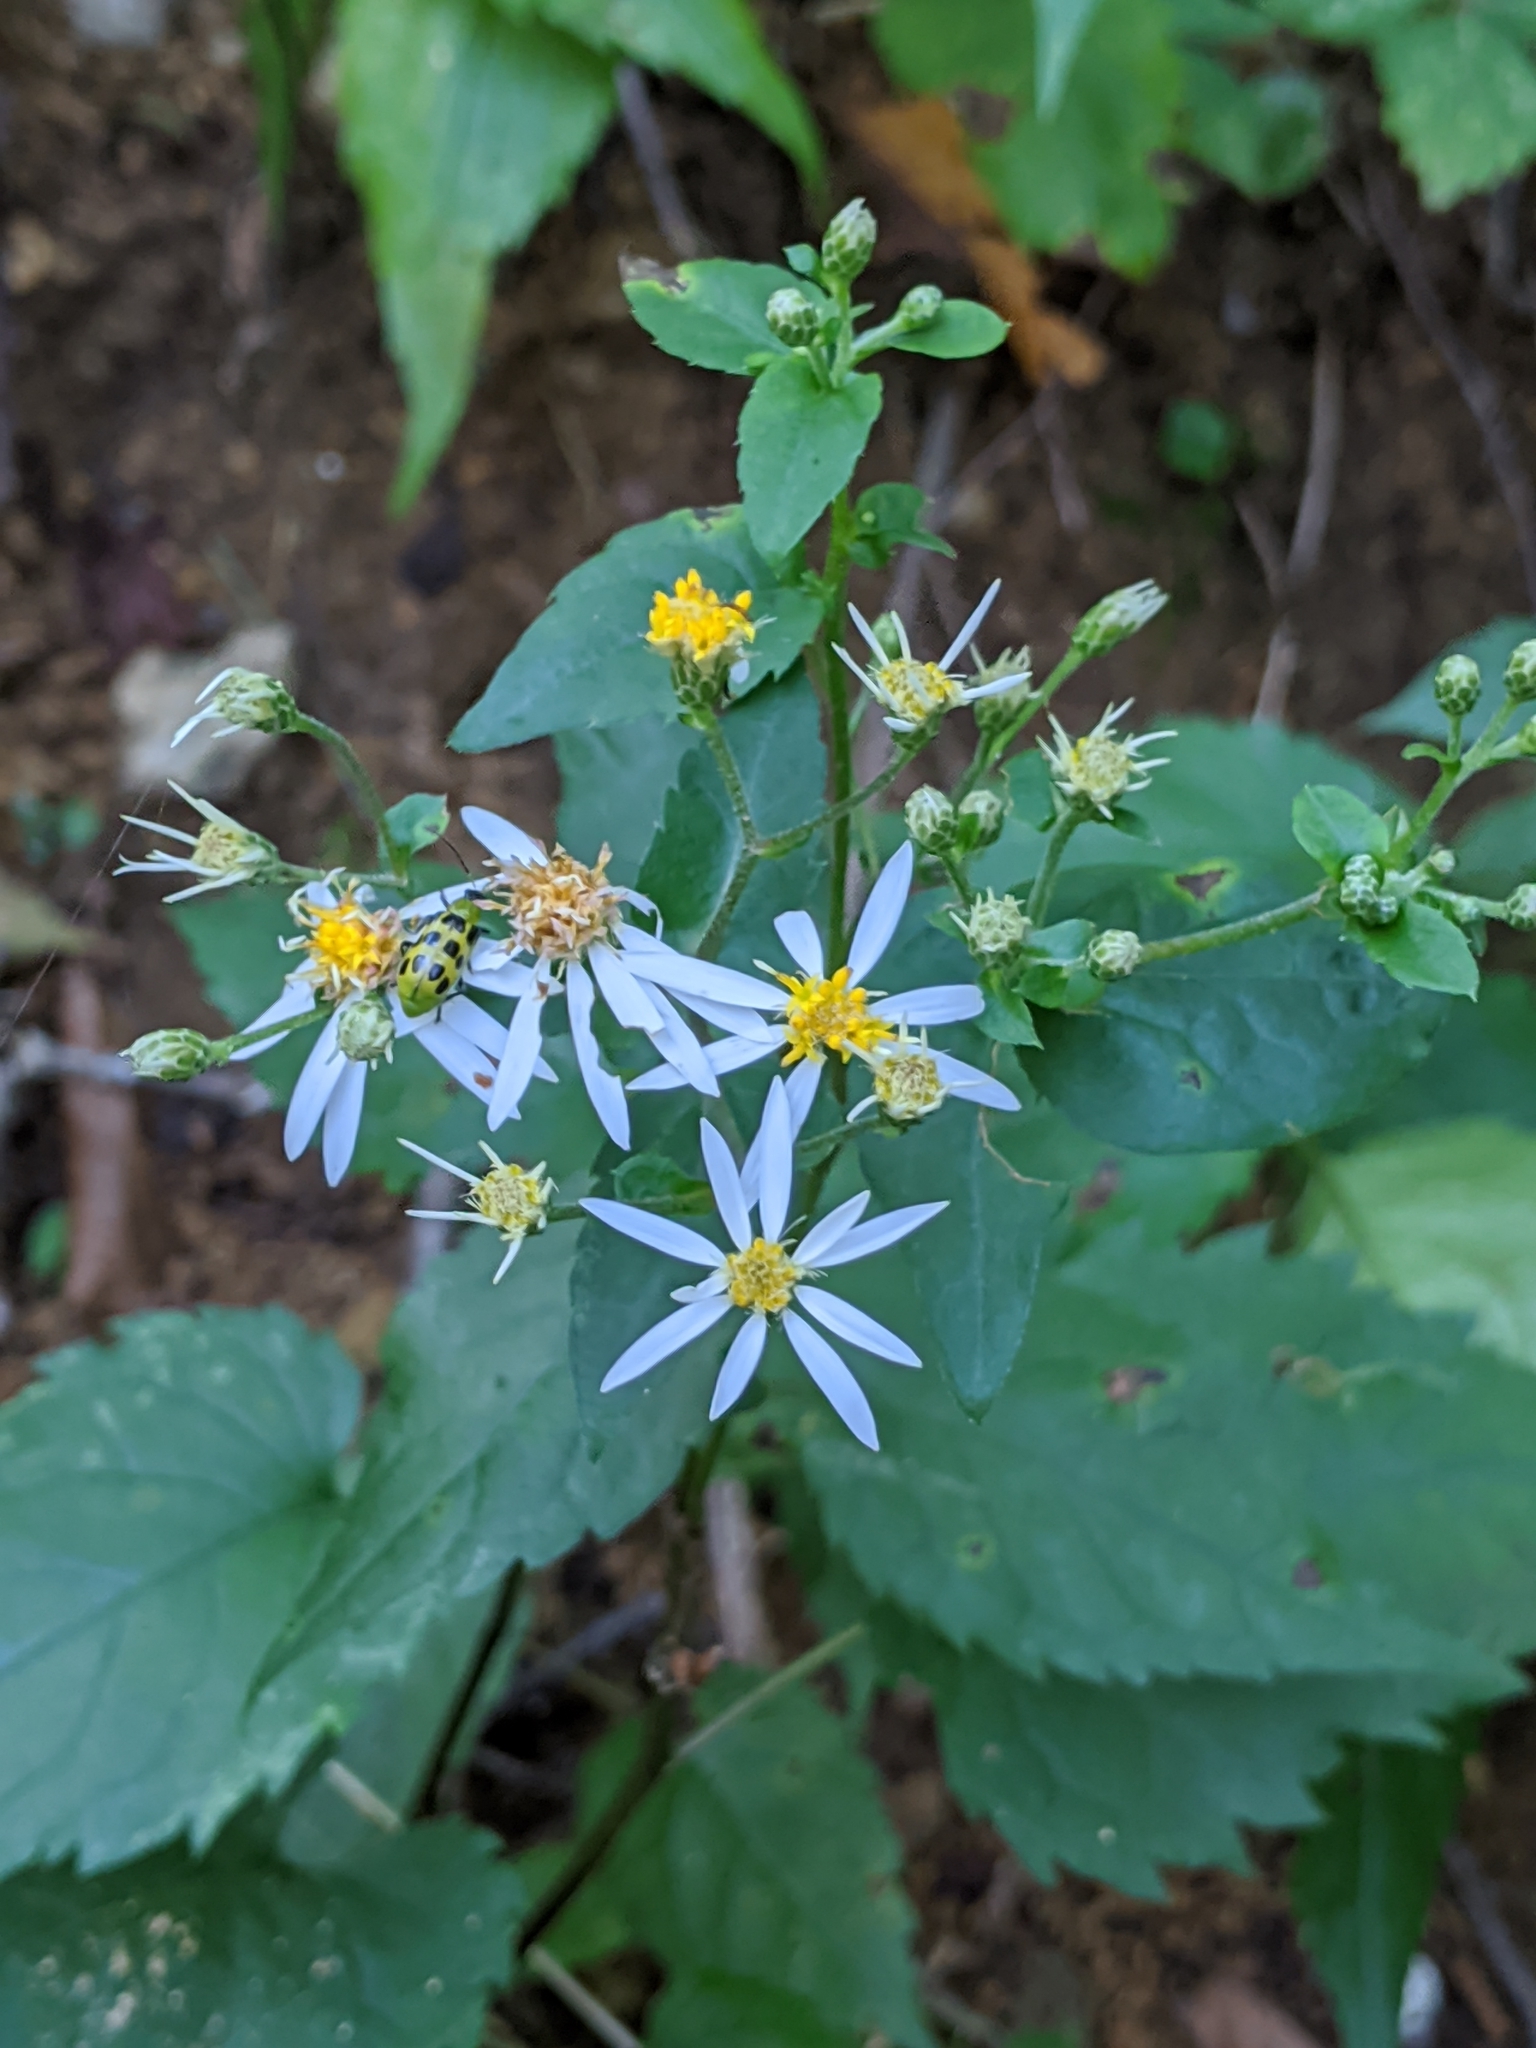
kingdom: Plantae
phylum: Tracheophyta
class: Magnoliopsida
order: Asterales
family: Asteraceae
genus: Eurybia
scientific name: Eurybia divaricata
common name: White wood aster
